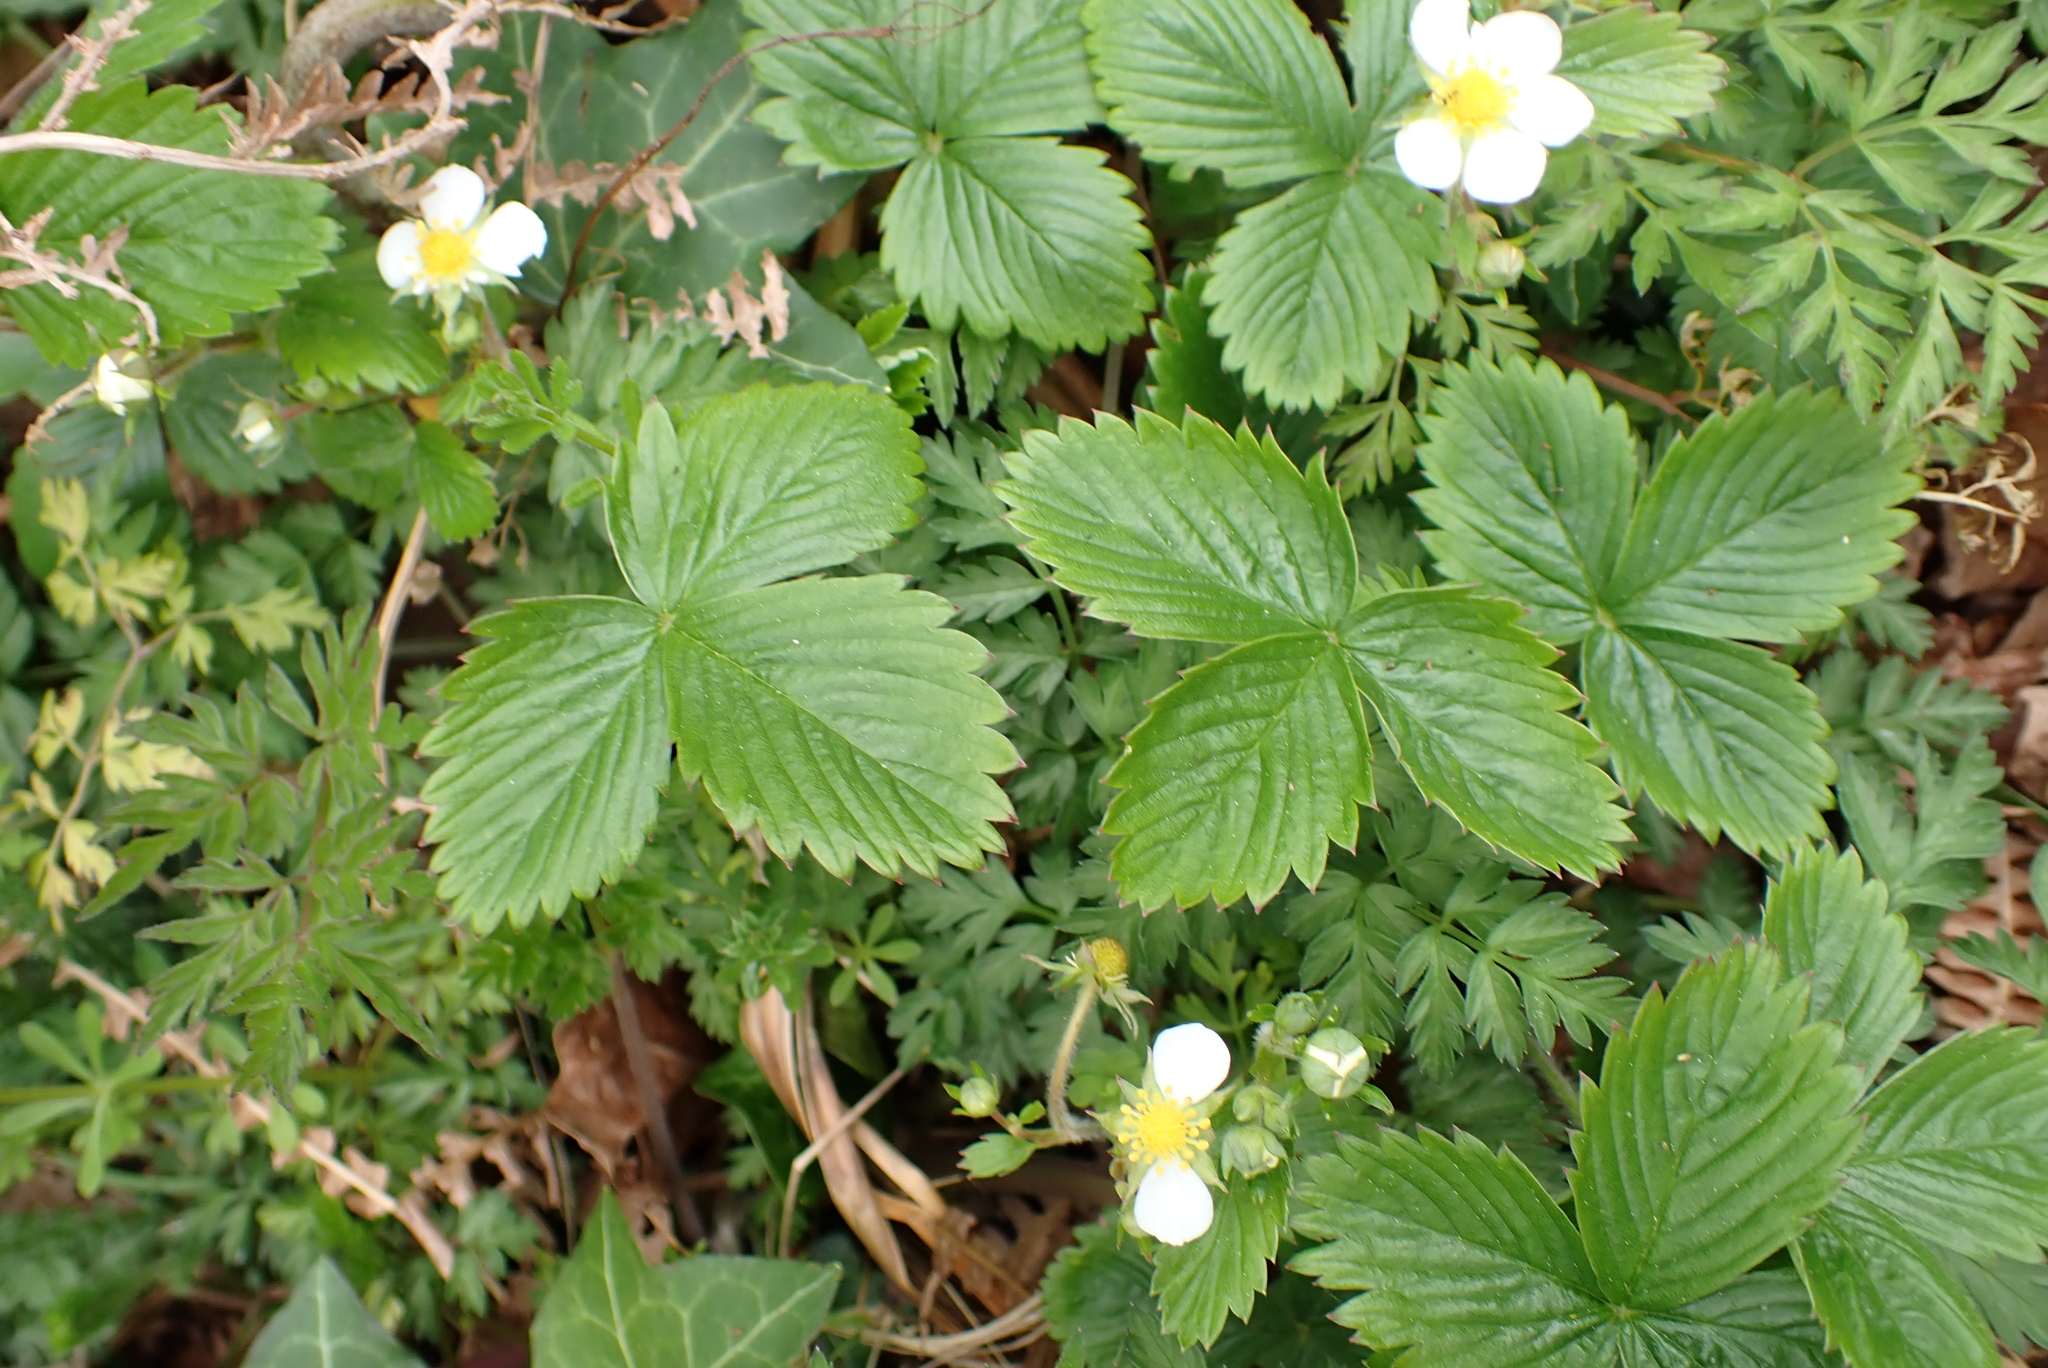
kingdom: Plantae
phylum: Tracheophyta
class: Magnoliopsida
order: Rosales
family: Rosaceae
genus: Fragaria
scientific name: Fragaria vesca
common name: Wild strawberry
